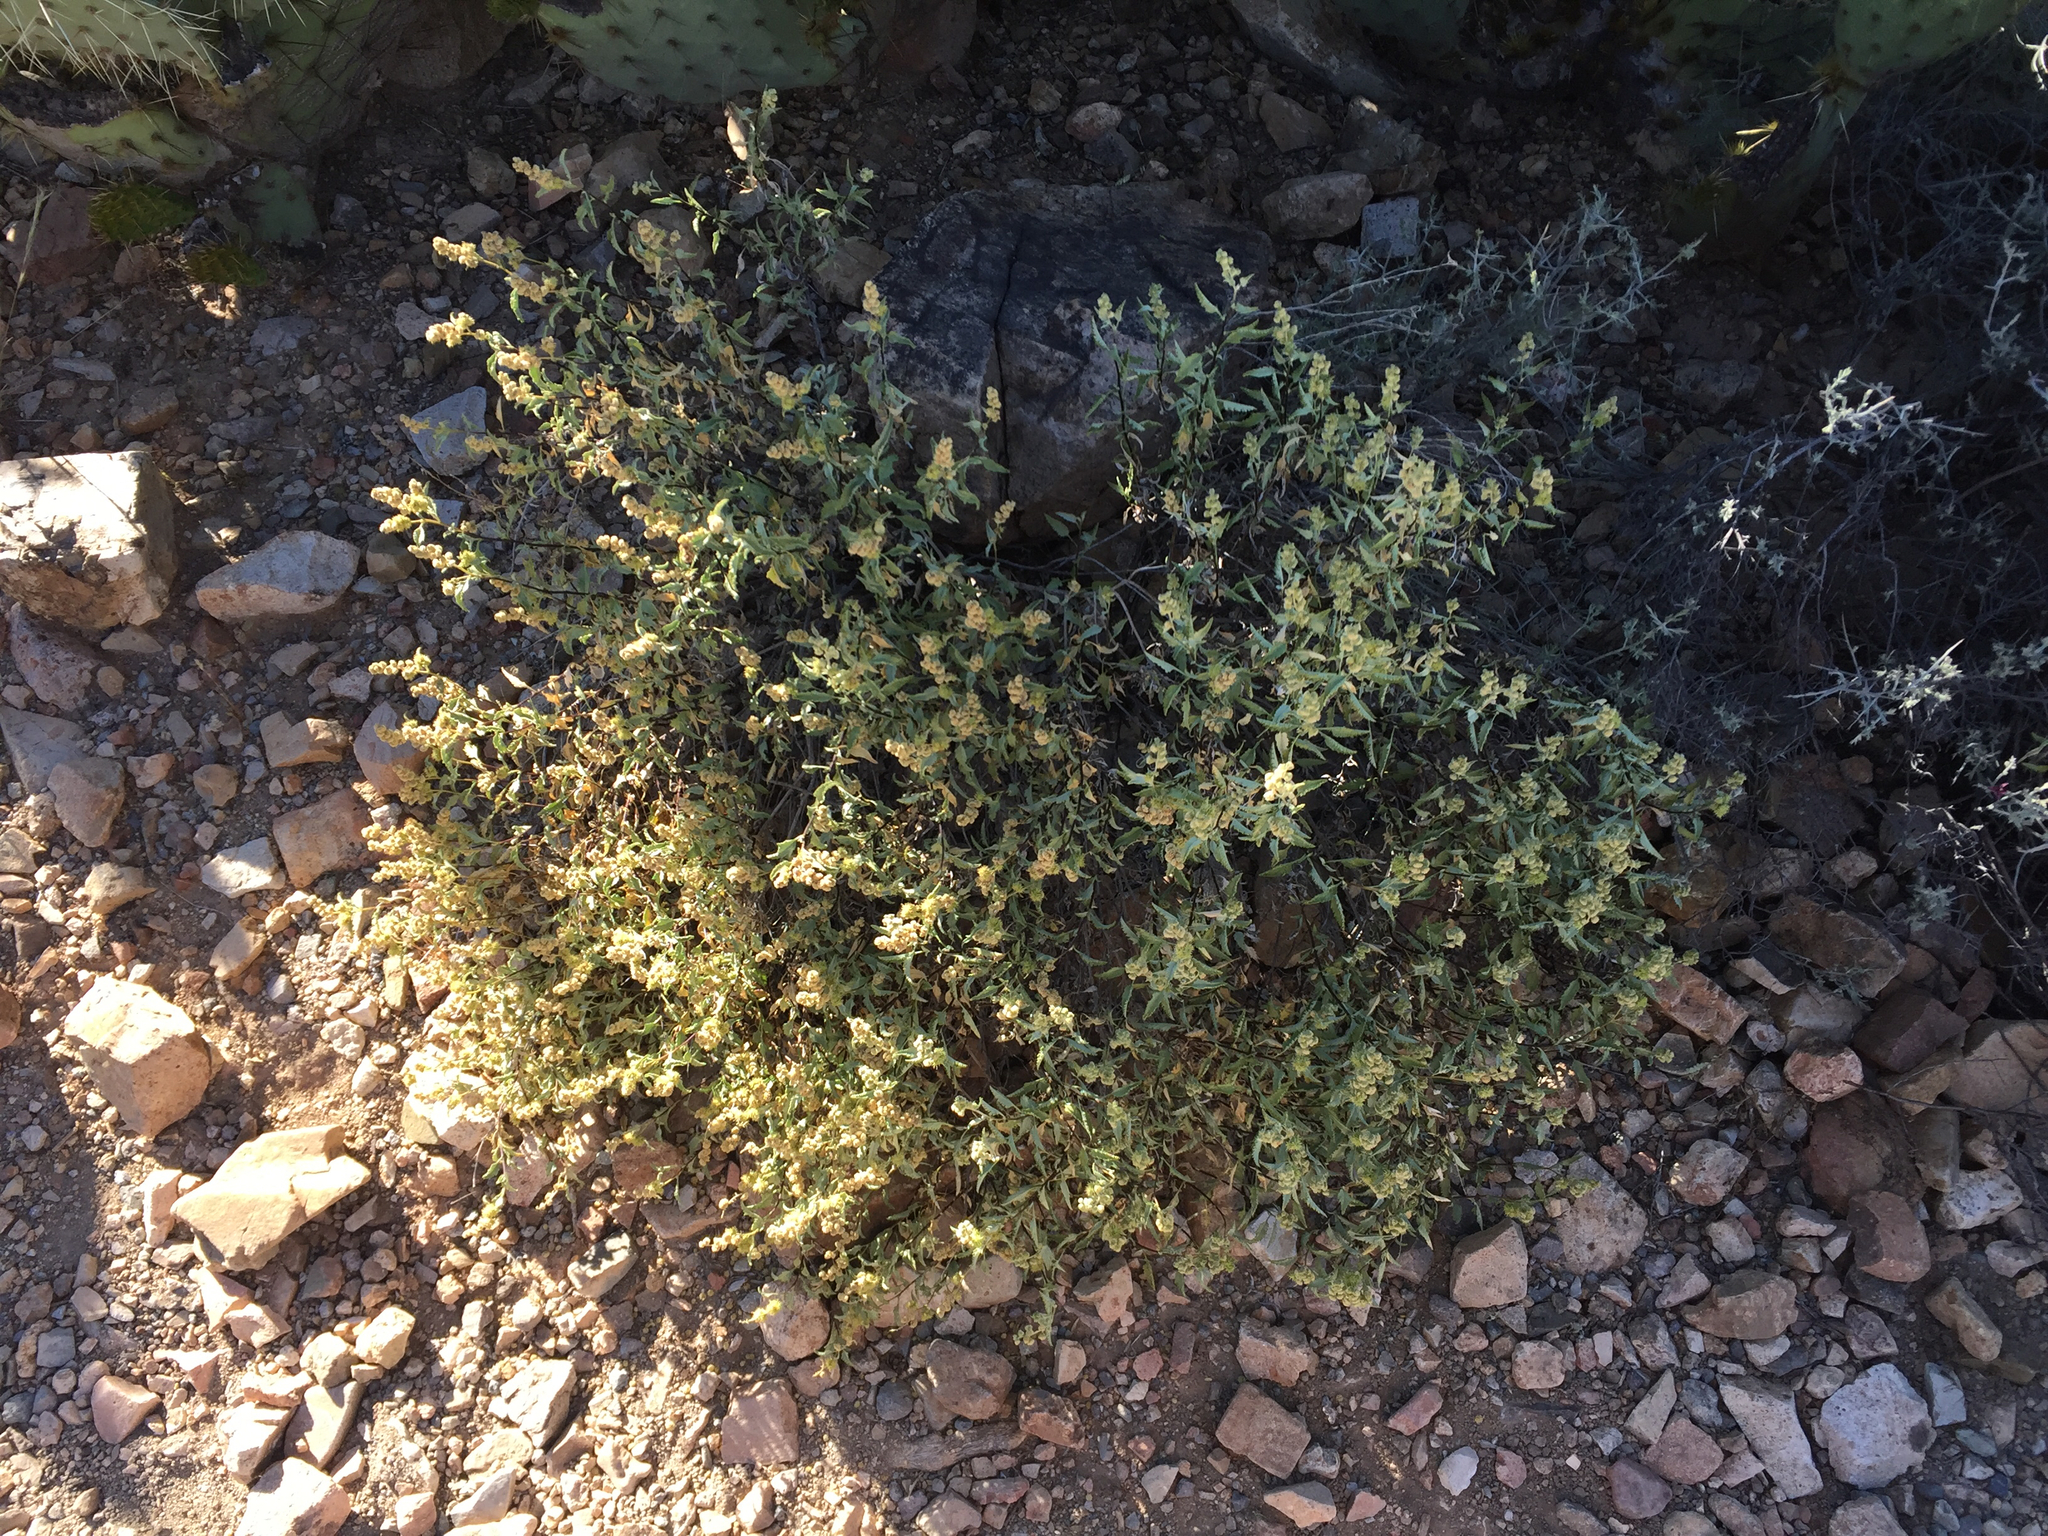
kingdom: Plantae
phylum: Tracheophyta
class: Magnoliopsida
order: Asterales
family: Asteraceae
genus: Ambrosia
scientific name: Ambrosia deltoidea
